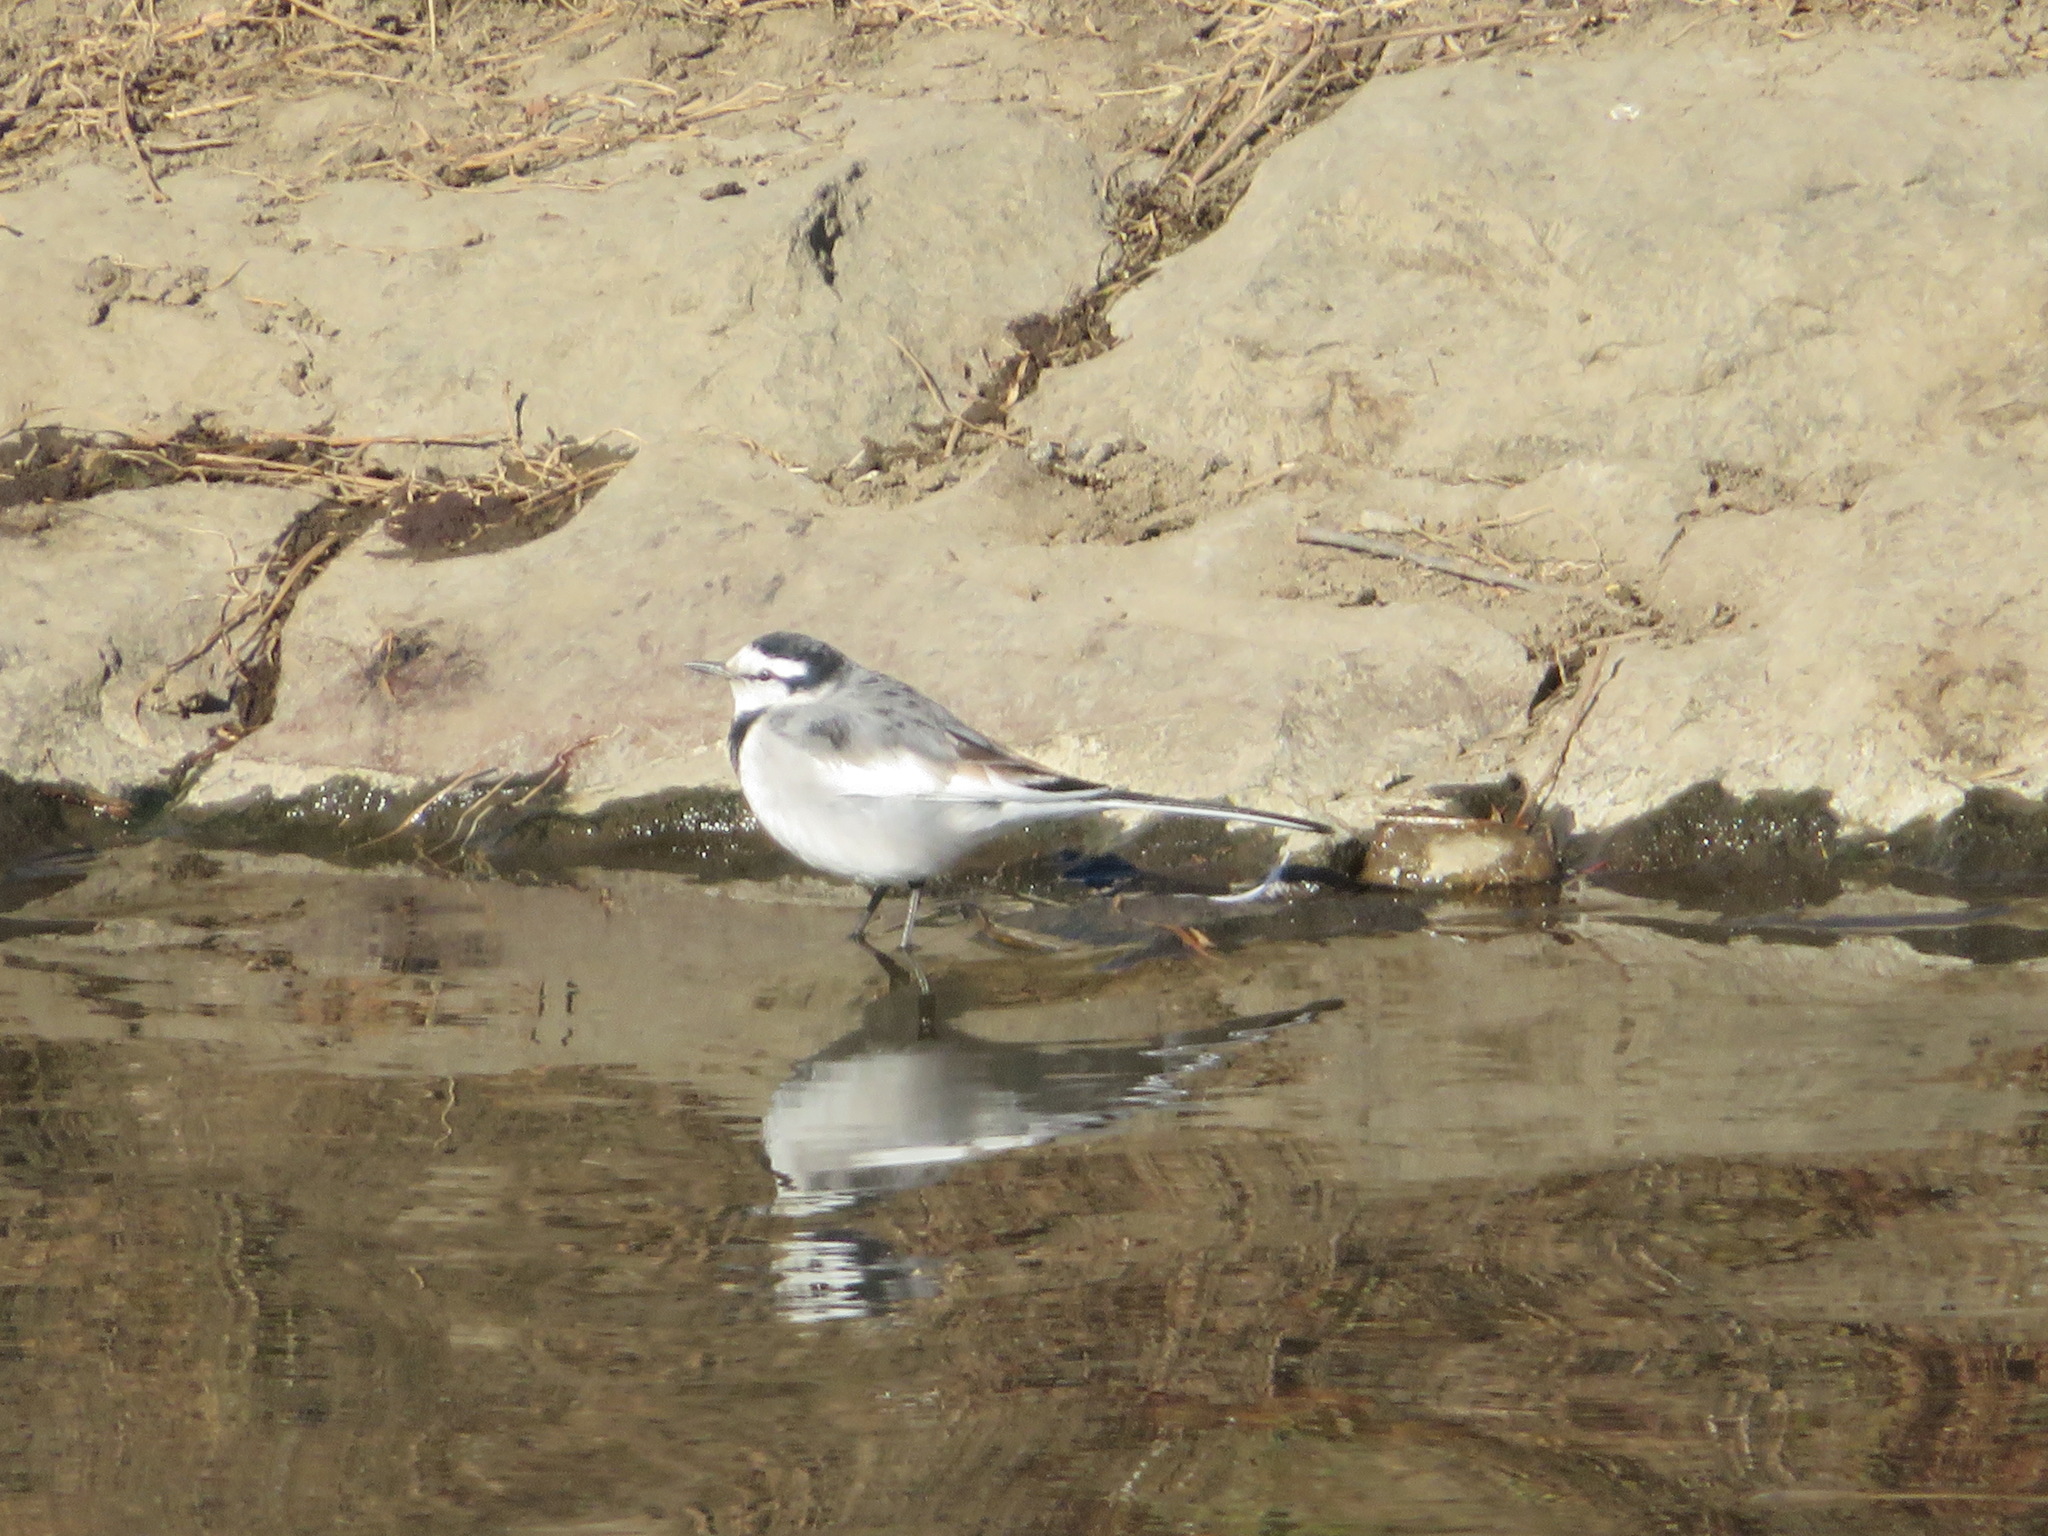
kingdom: Animalia
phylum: Chordata
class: Aves
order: Passeriformes
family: Motacillidae
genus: Motacilla
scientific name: Motacilla alba
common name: White wagtail
